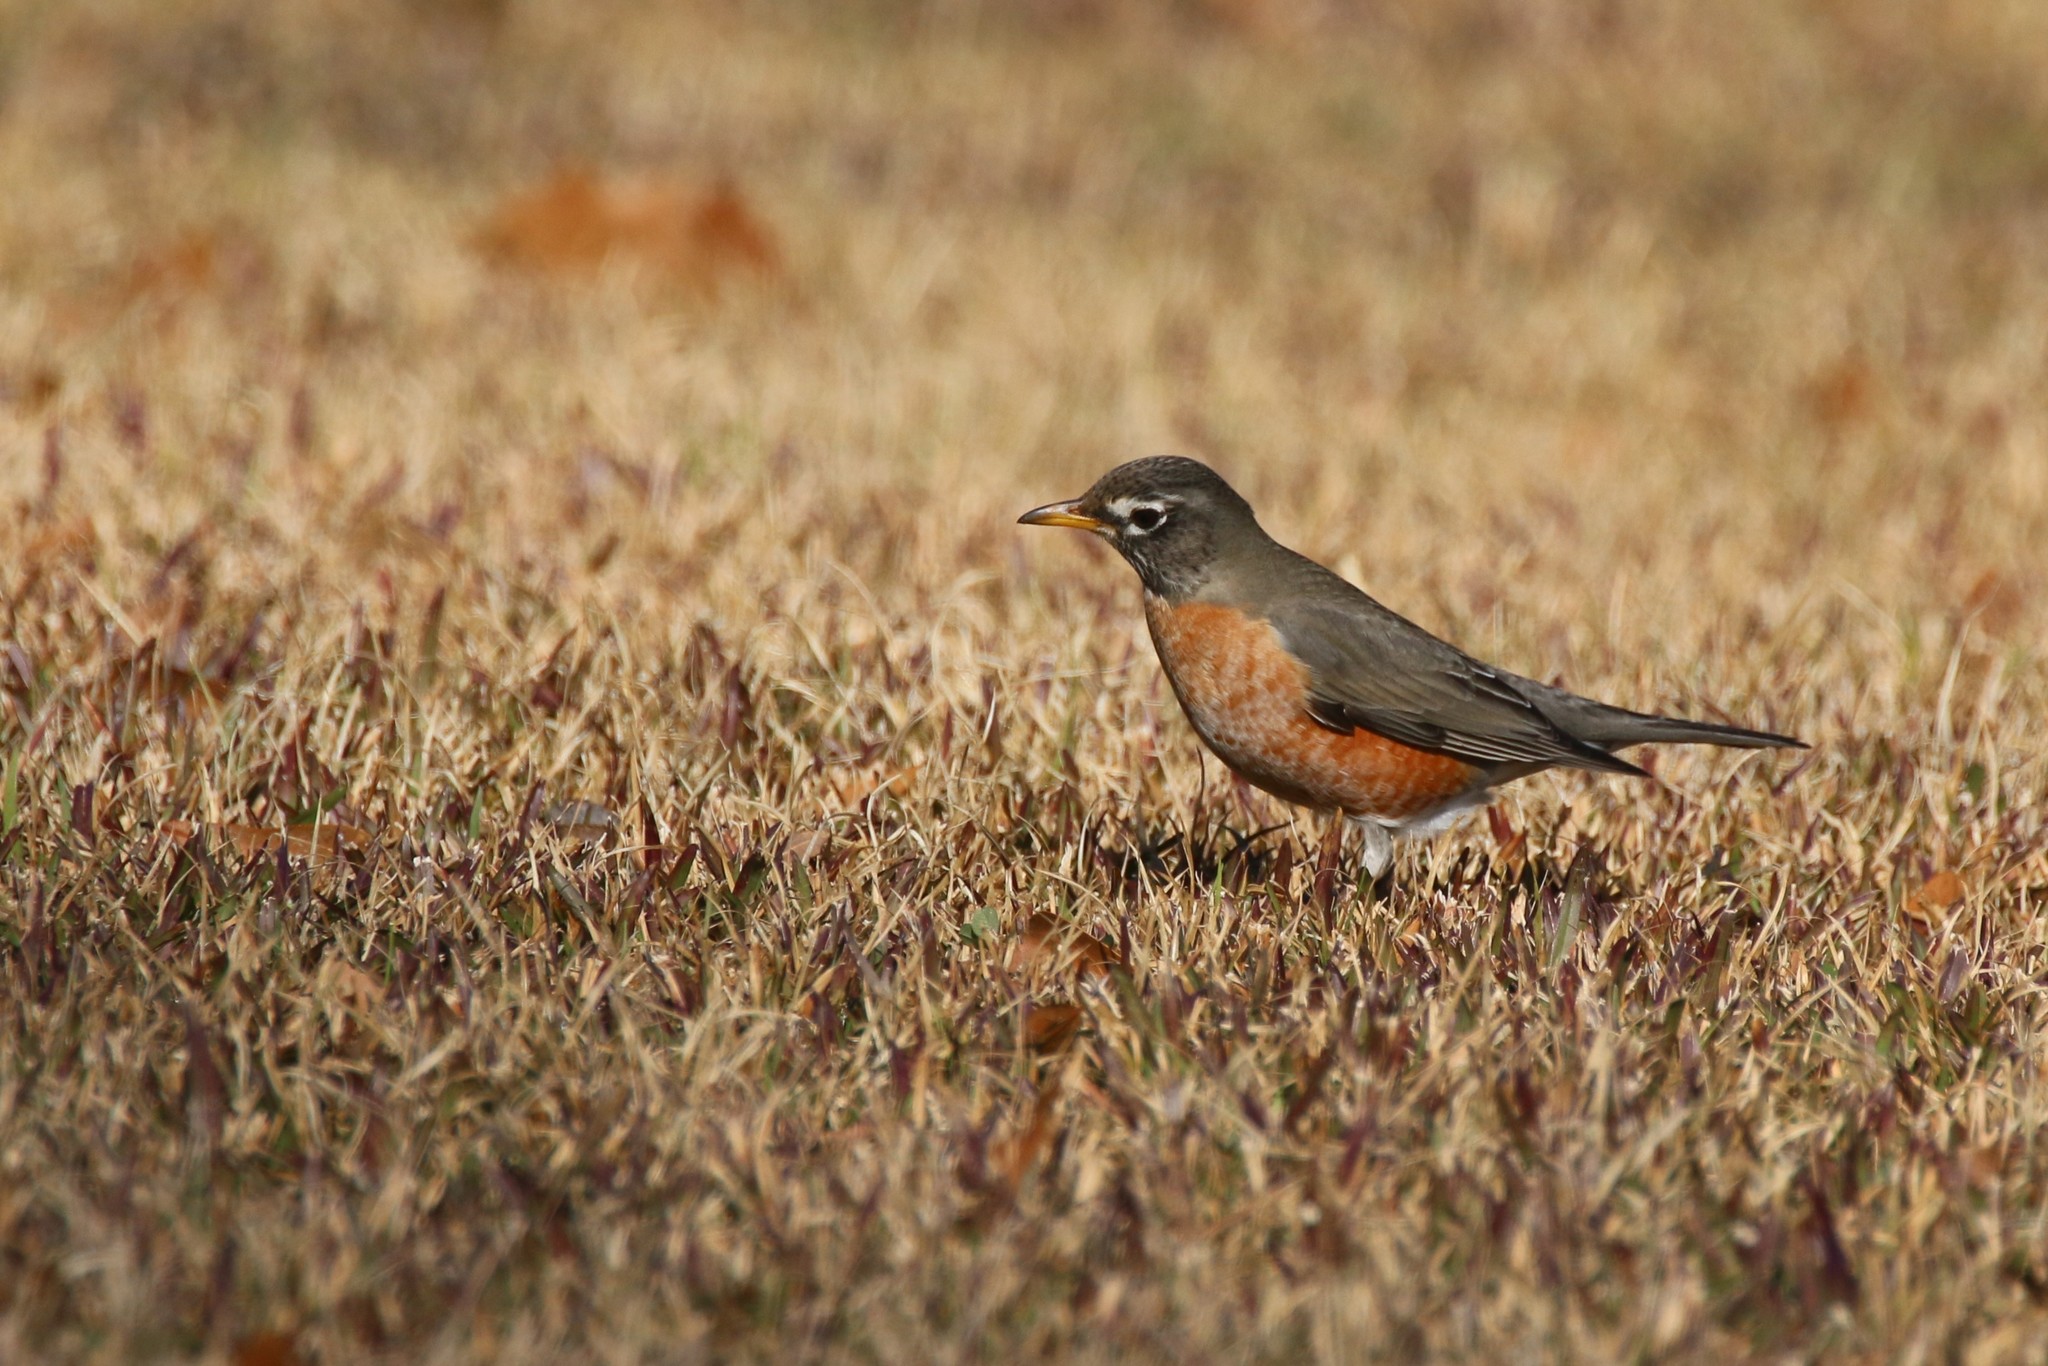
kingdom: Animalia
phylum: Chordata
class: Aves
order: Passeriformes
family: Turdidae
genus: Turdus
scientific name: Turdus migratorius
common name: American robin
